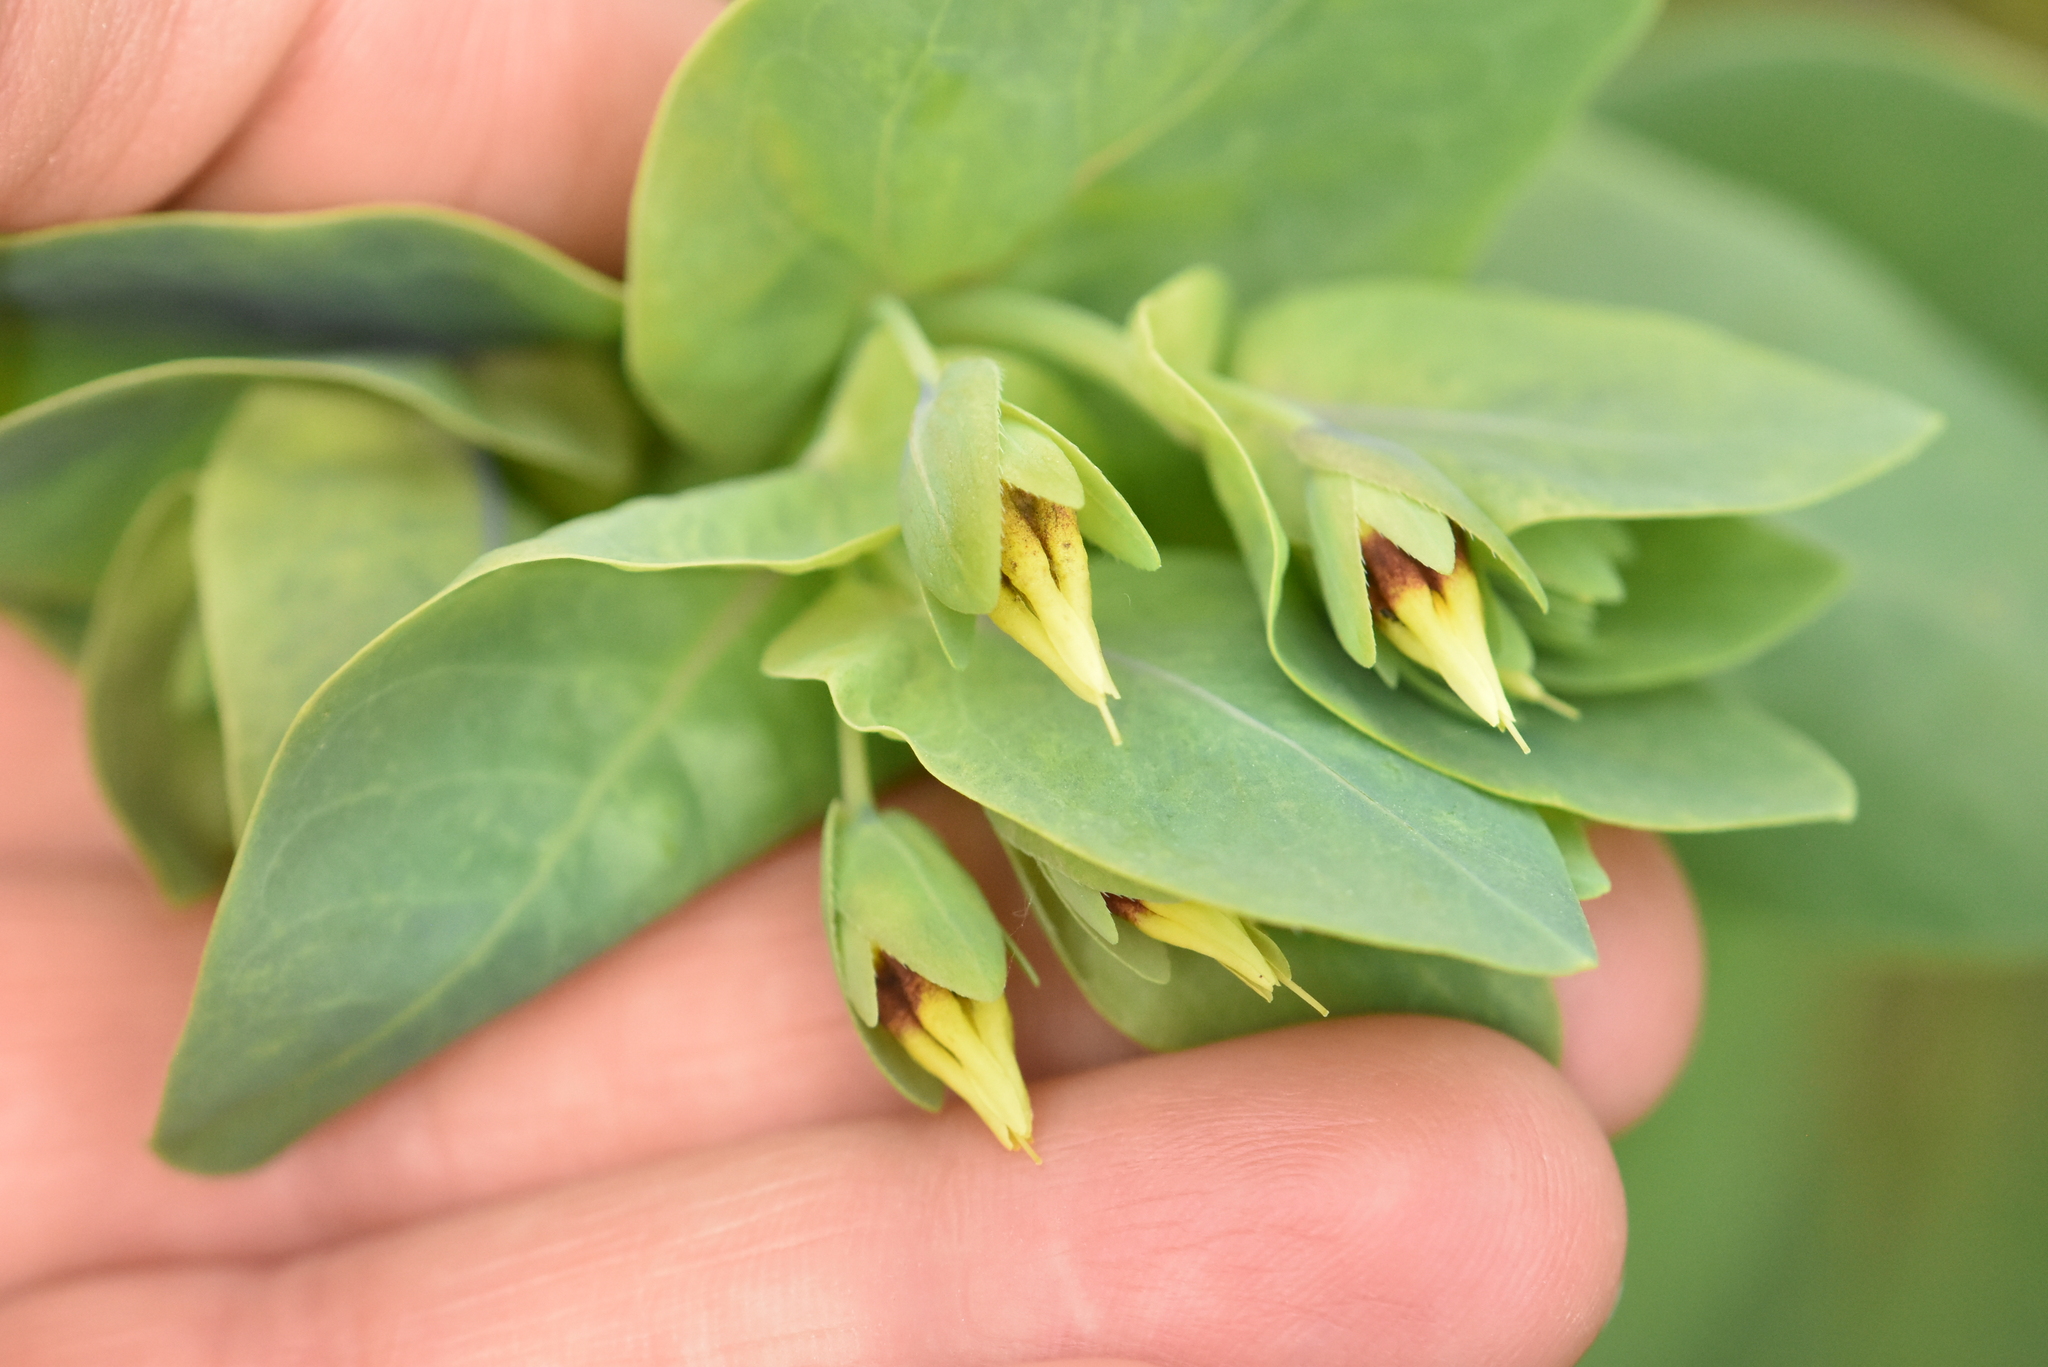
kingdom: Plantae
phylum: Tracheophyta
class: Magnoliopsida
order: Boraginales
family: Boraginaceae
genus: Cerinthe
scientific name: Cerinthe minor
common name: Lesser honeywort
